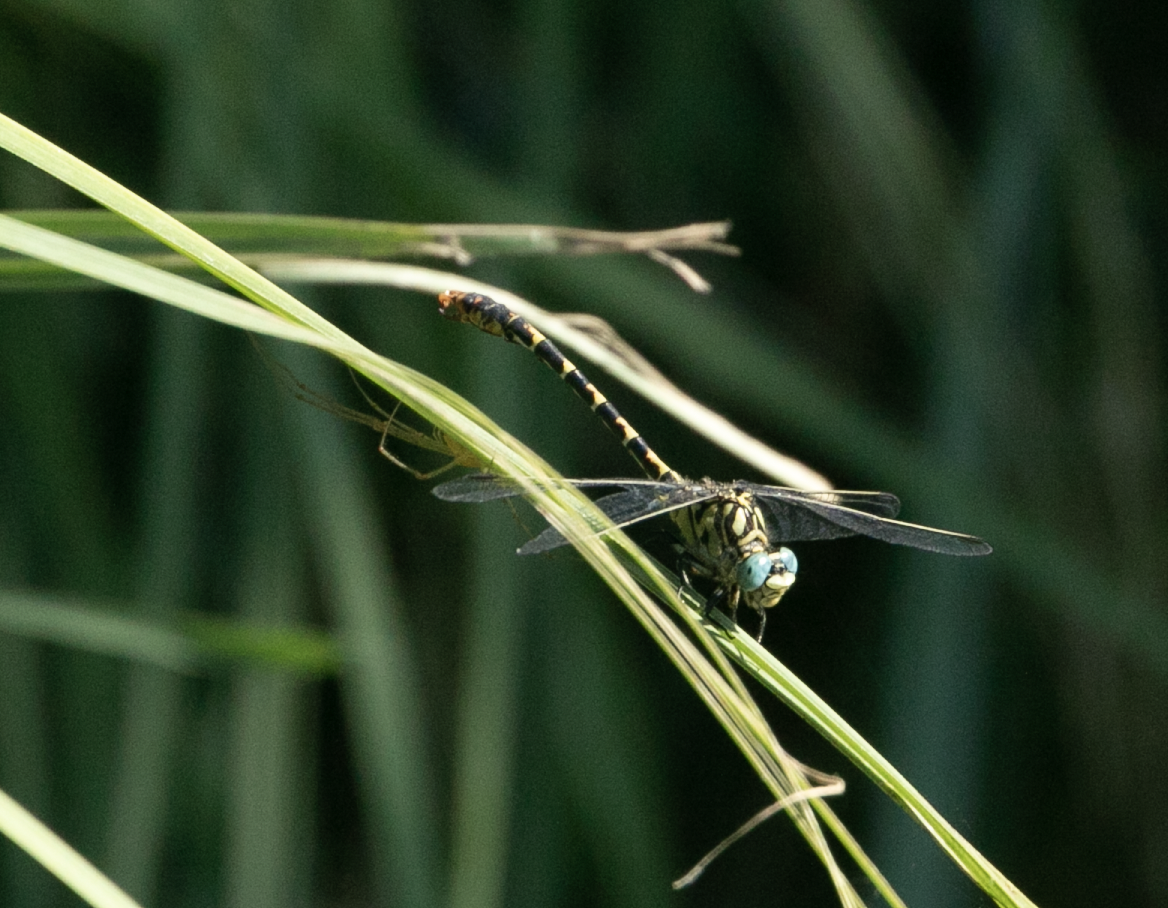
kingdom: Animalia
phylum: Arthropoda
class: Insecta
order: Odonata
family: Gomphidae
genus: Onychogomphus
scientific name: Onychogomphus forcipatus
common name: Small pincertail
